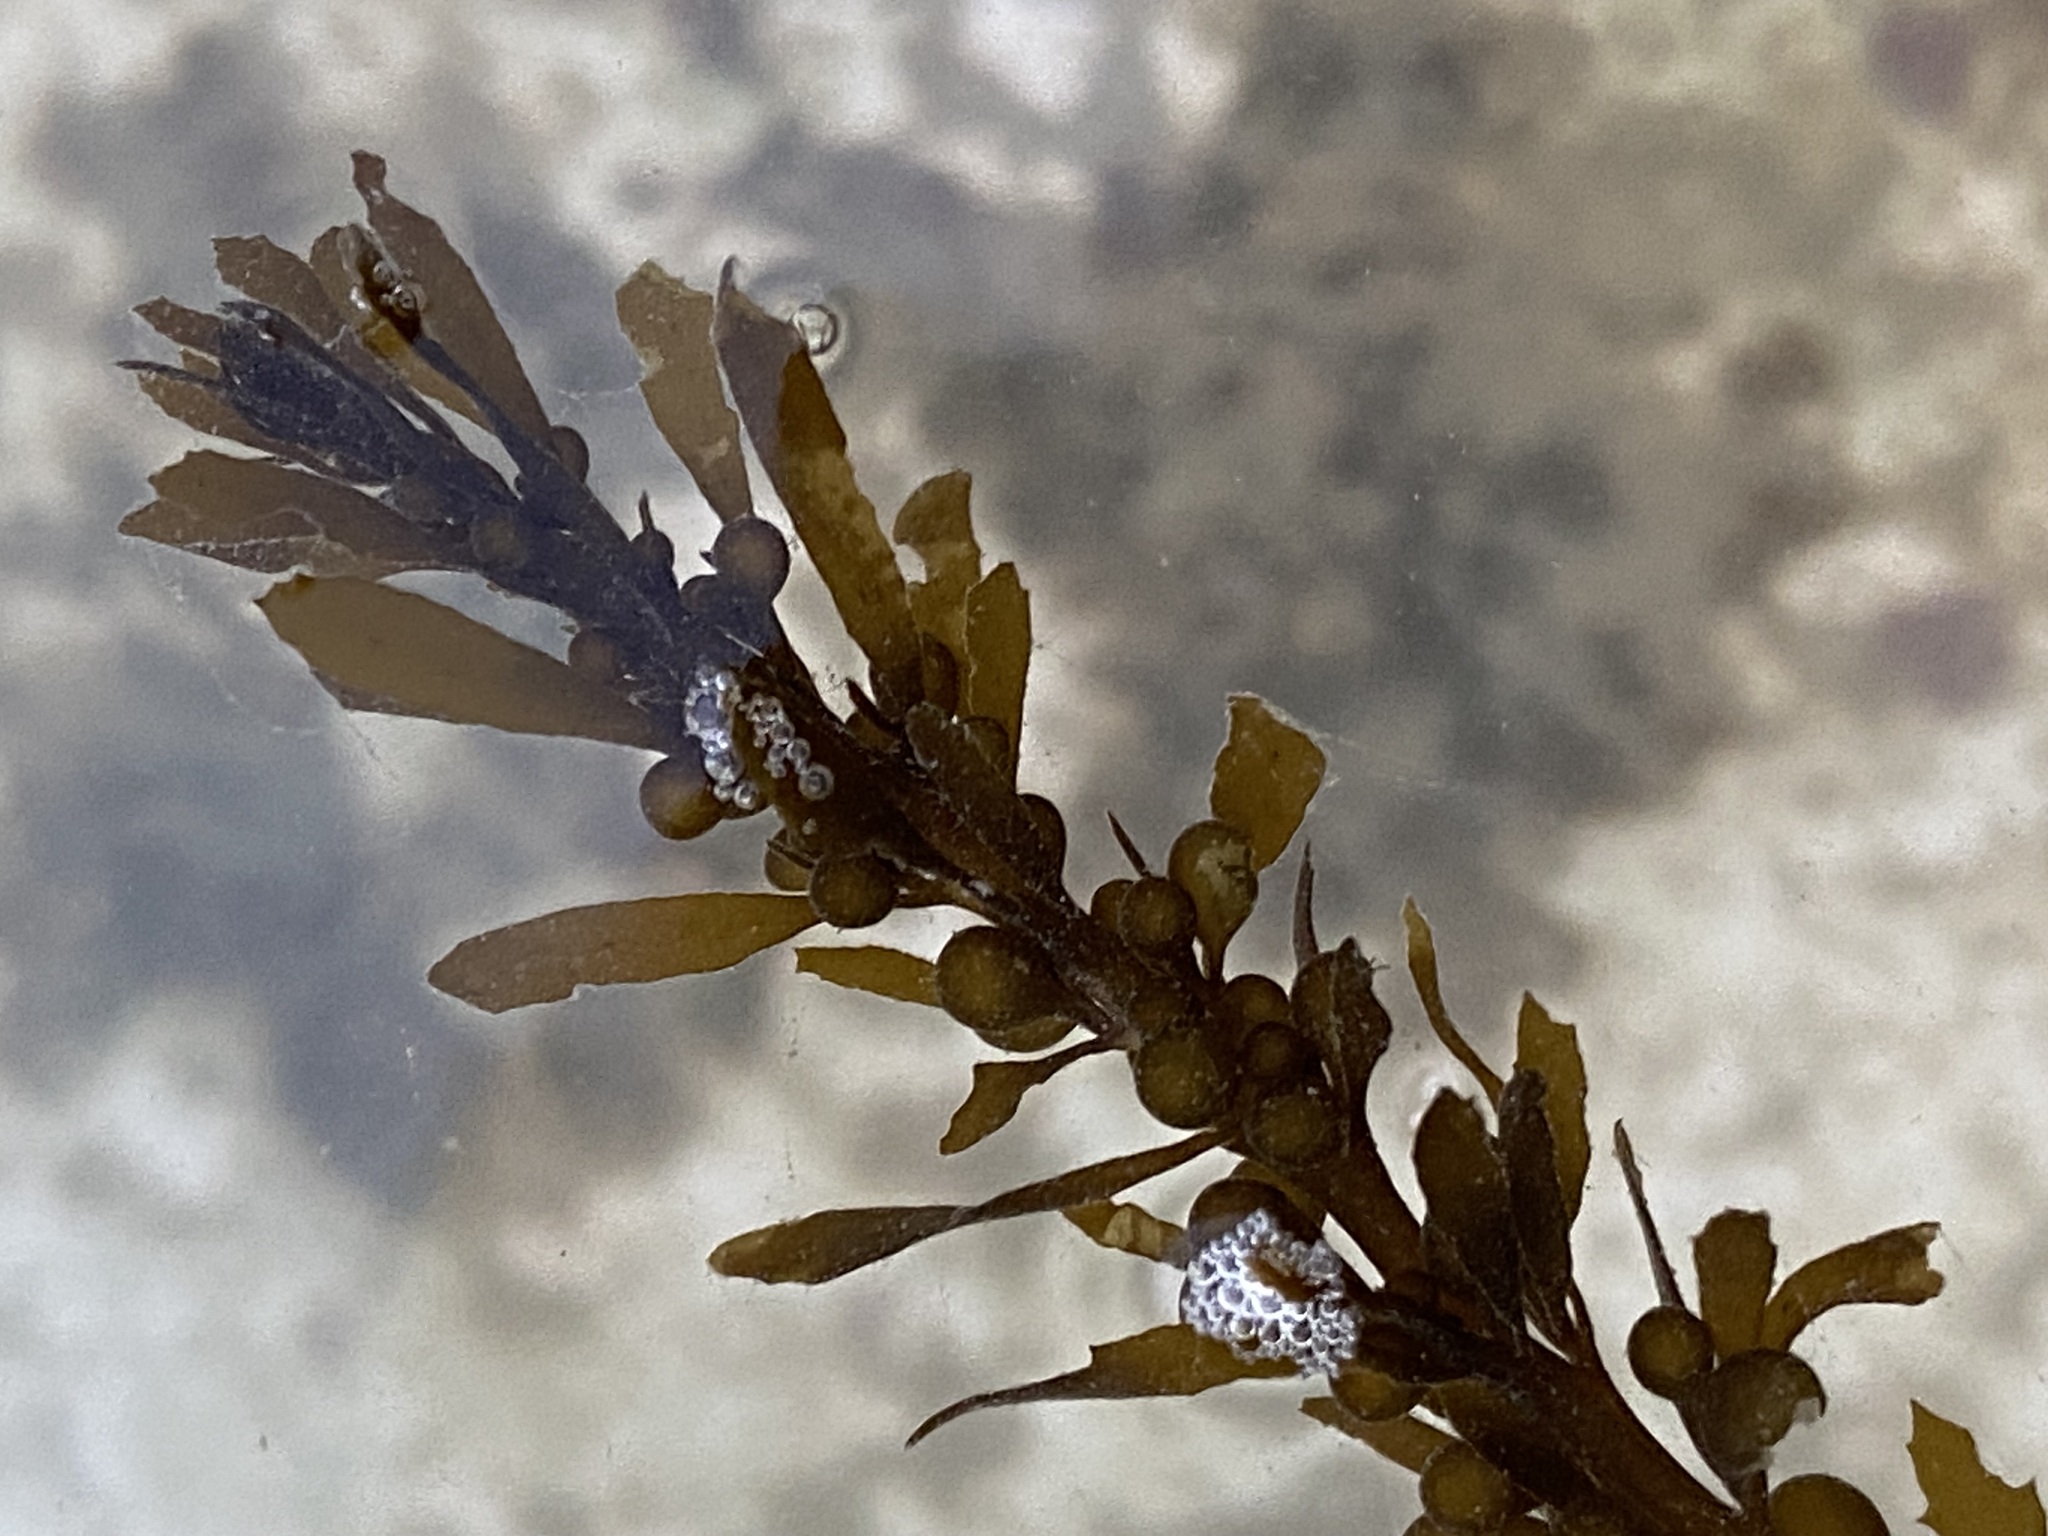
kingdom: Chromista
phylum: Ochrophyta
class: Phaeophyceae
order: Fucales
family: Sargassaceae
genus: Sargassum
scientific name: Sargassum muticum
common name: Japweed
